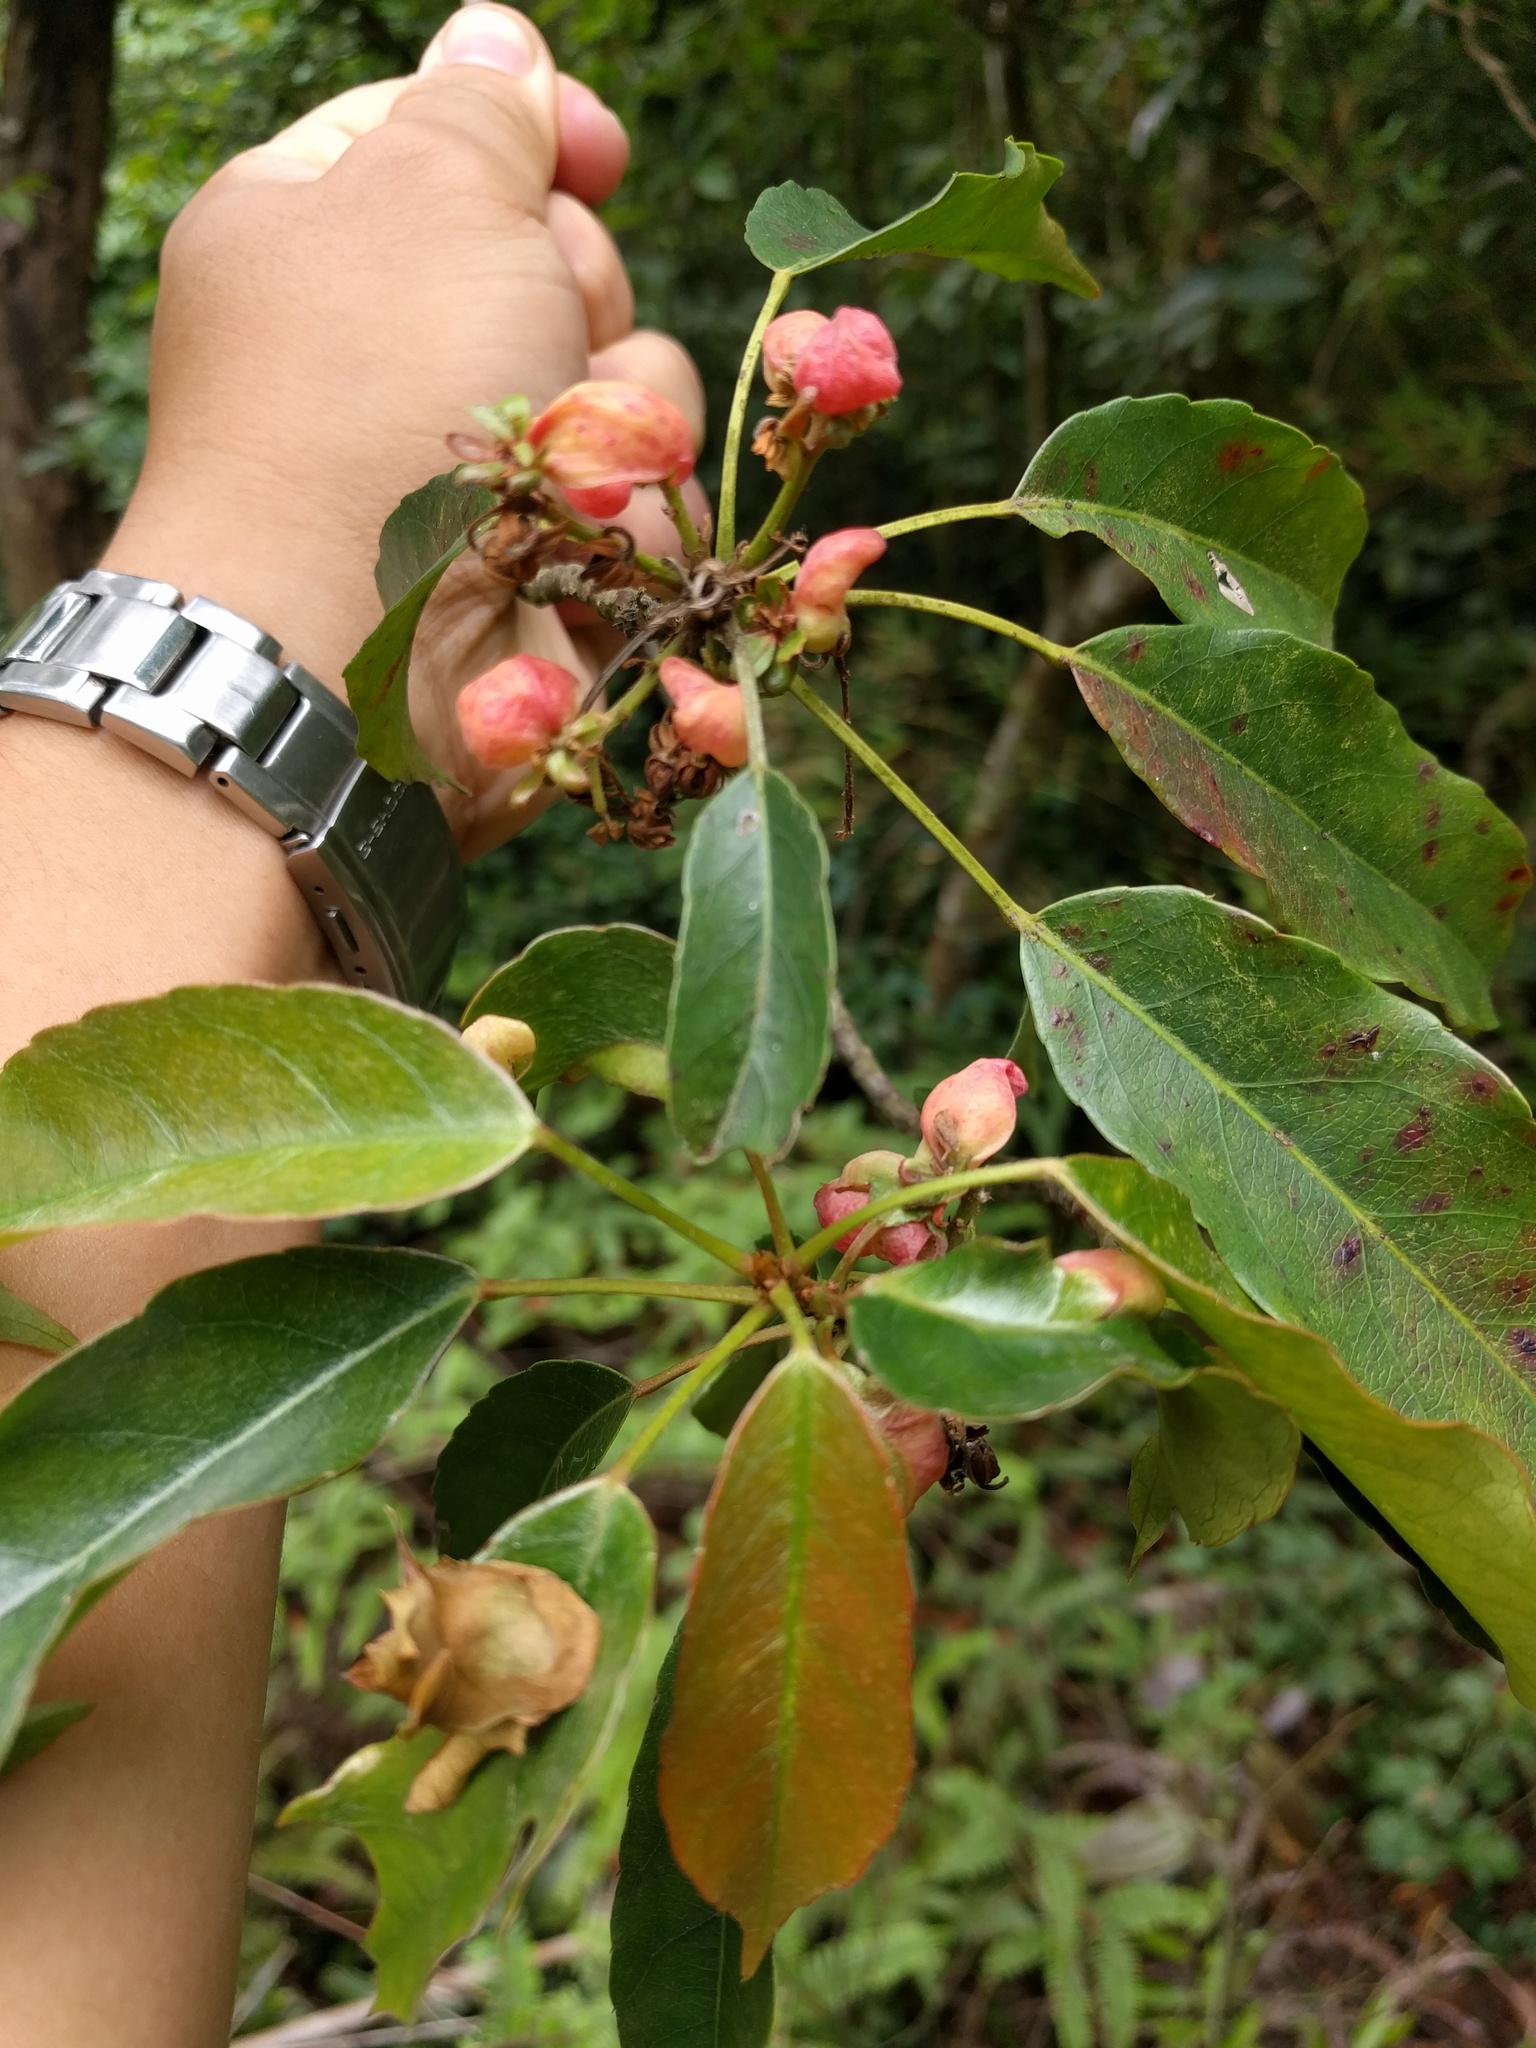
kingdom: Plantae
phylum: Tracheophyta
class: Magnoliopsida
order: Oxalidales
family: Elaeocarpaceae
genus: Elaeocarpus
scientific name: Elaeocarpus japonicus
